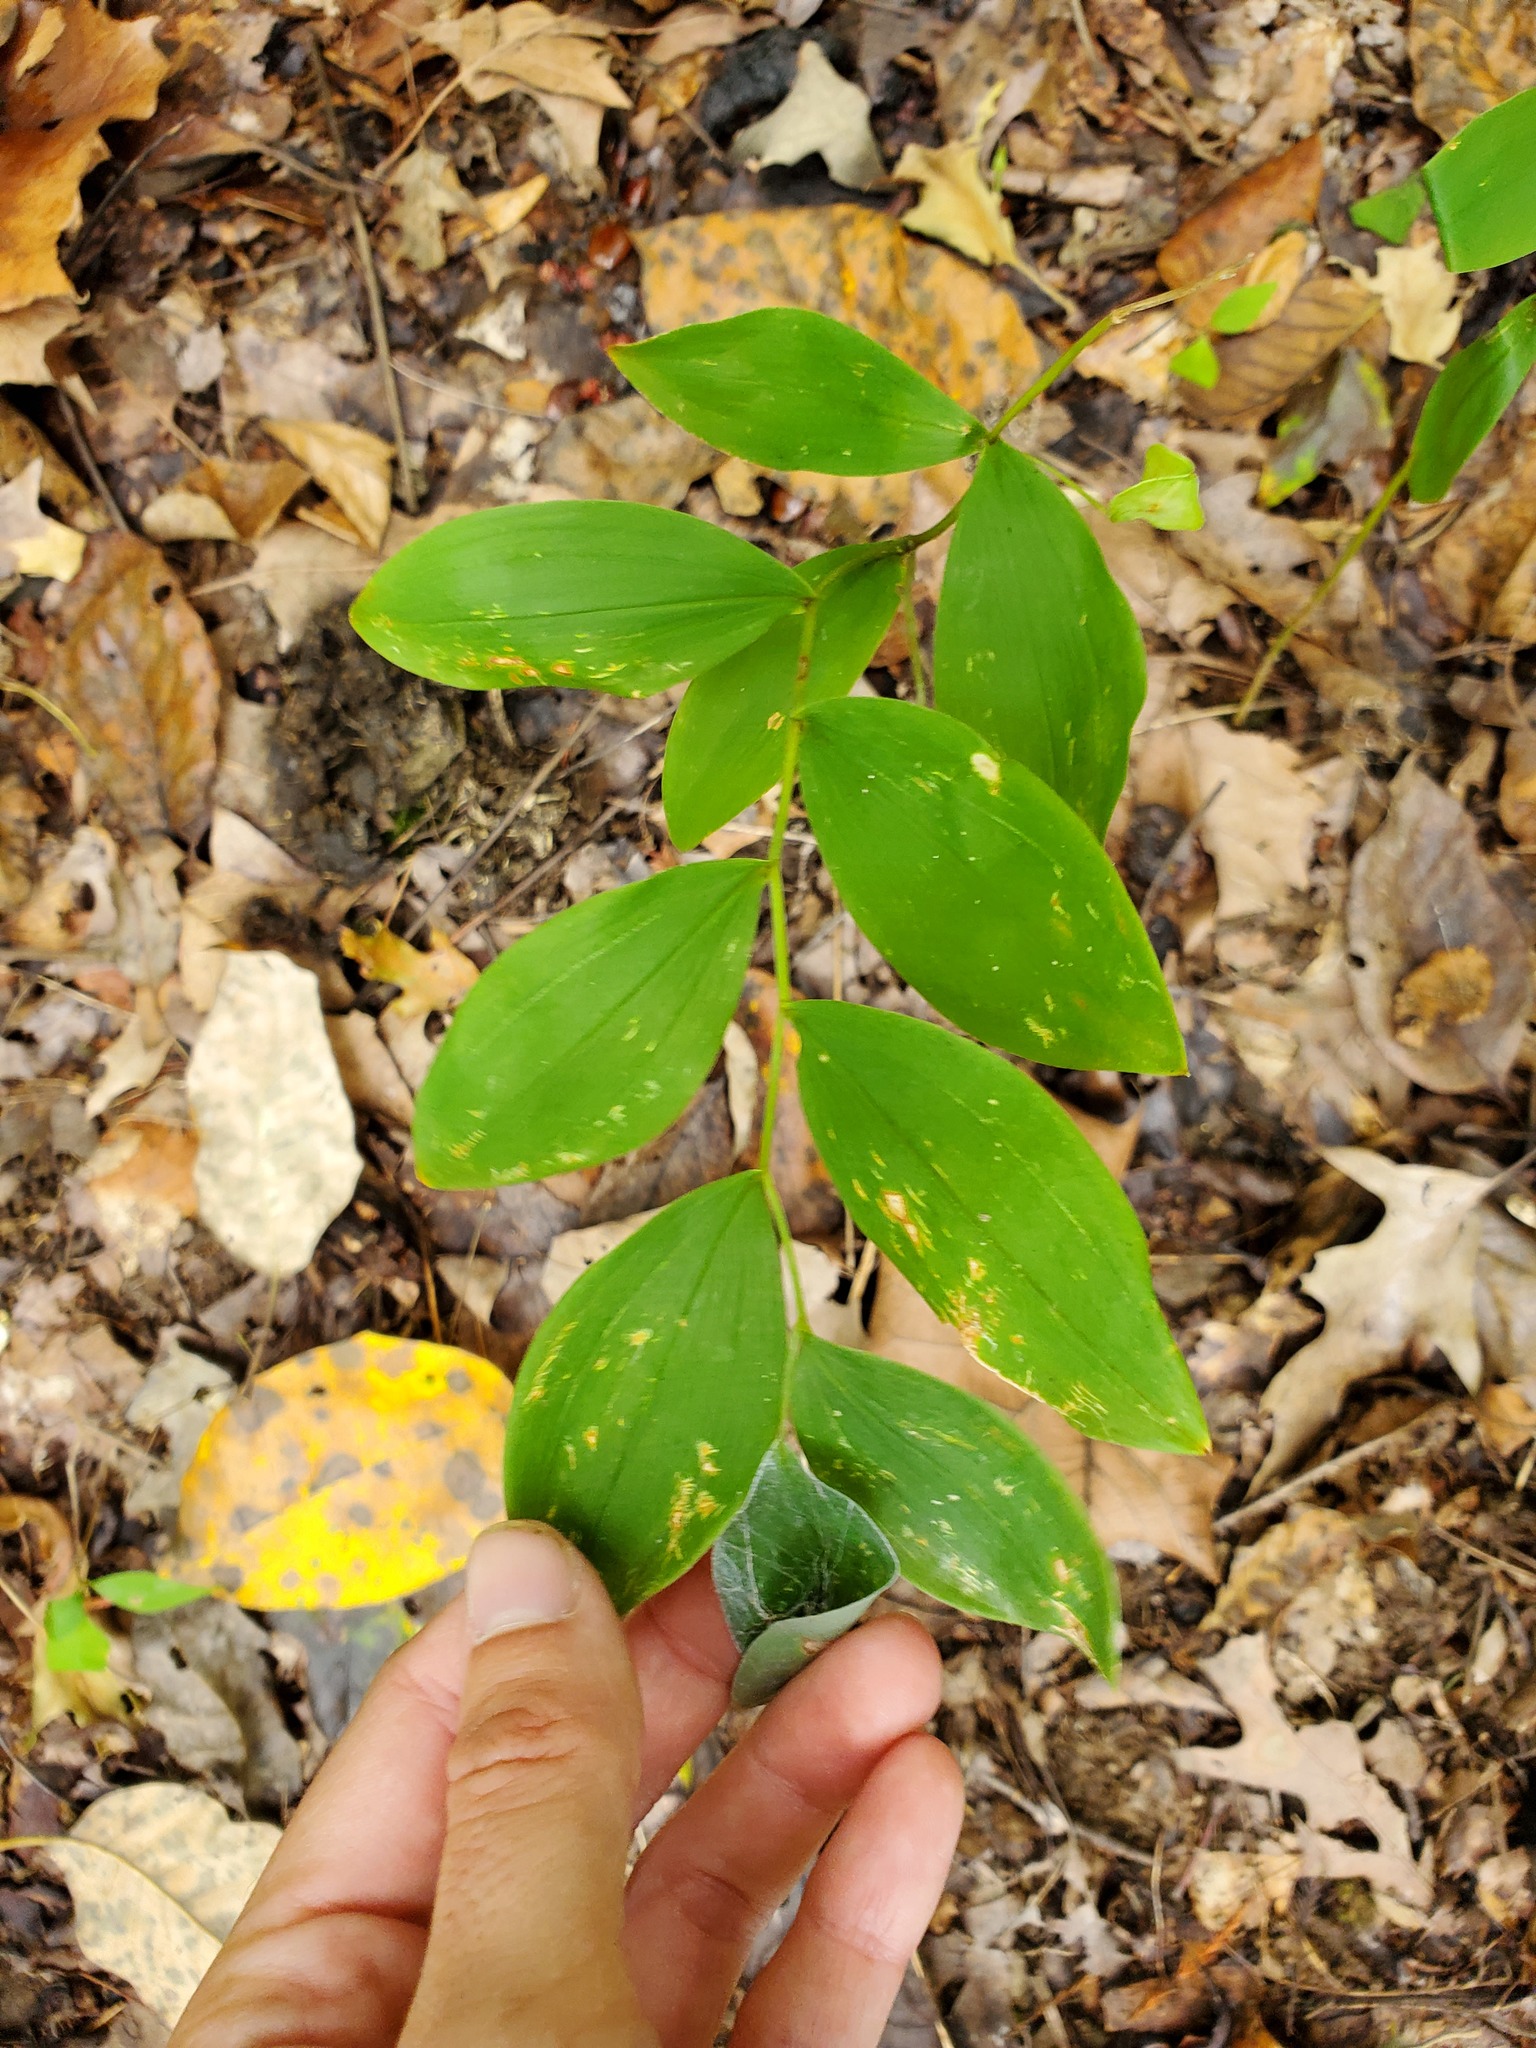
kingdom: Plantae
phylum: Tracheophyta
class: Liliopsida
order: Liliales
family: Colchicaceae
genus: Uvularia
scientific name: Uvularia sessilifolia
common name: Straw-lily
